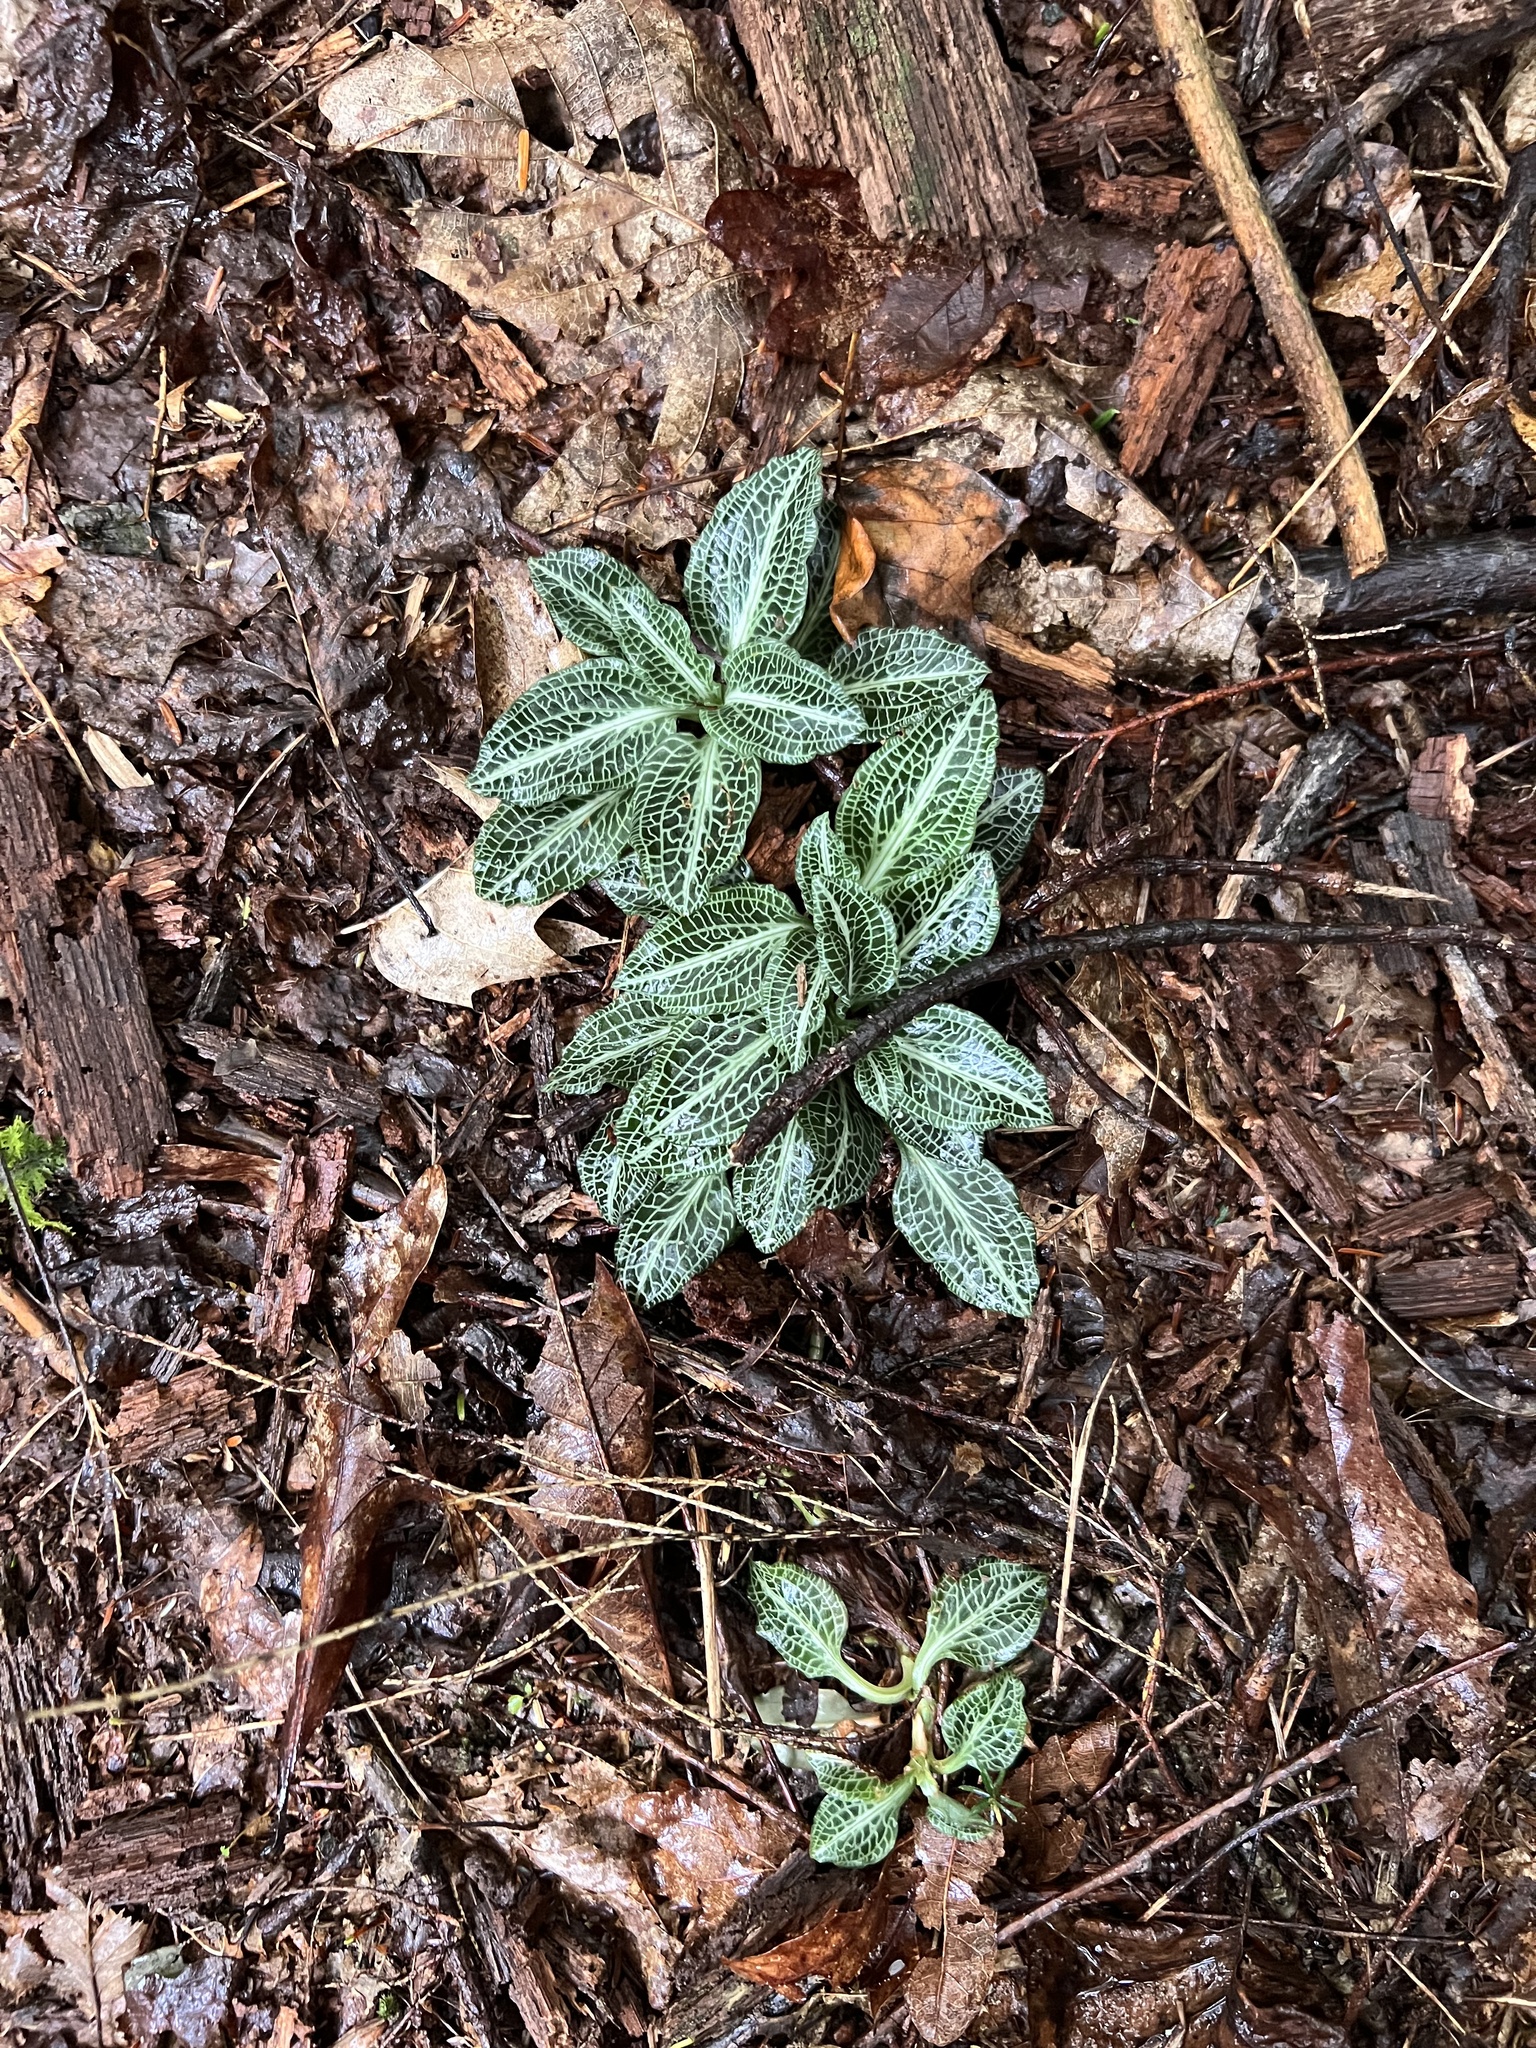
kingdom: Plantae
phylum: Tracheophyta
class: Liliopsida
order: Asparagales
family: Orchidaceae
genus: Goodyera
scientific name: Goodyera pubescens
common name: Downy rattlesnake-plantain
